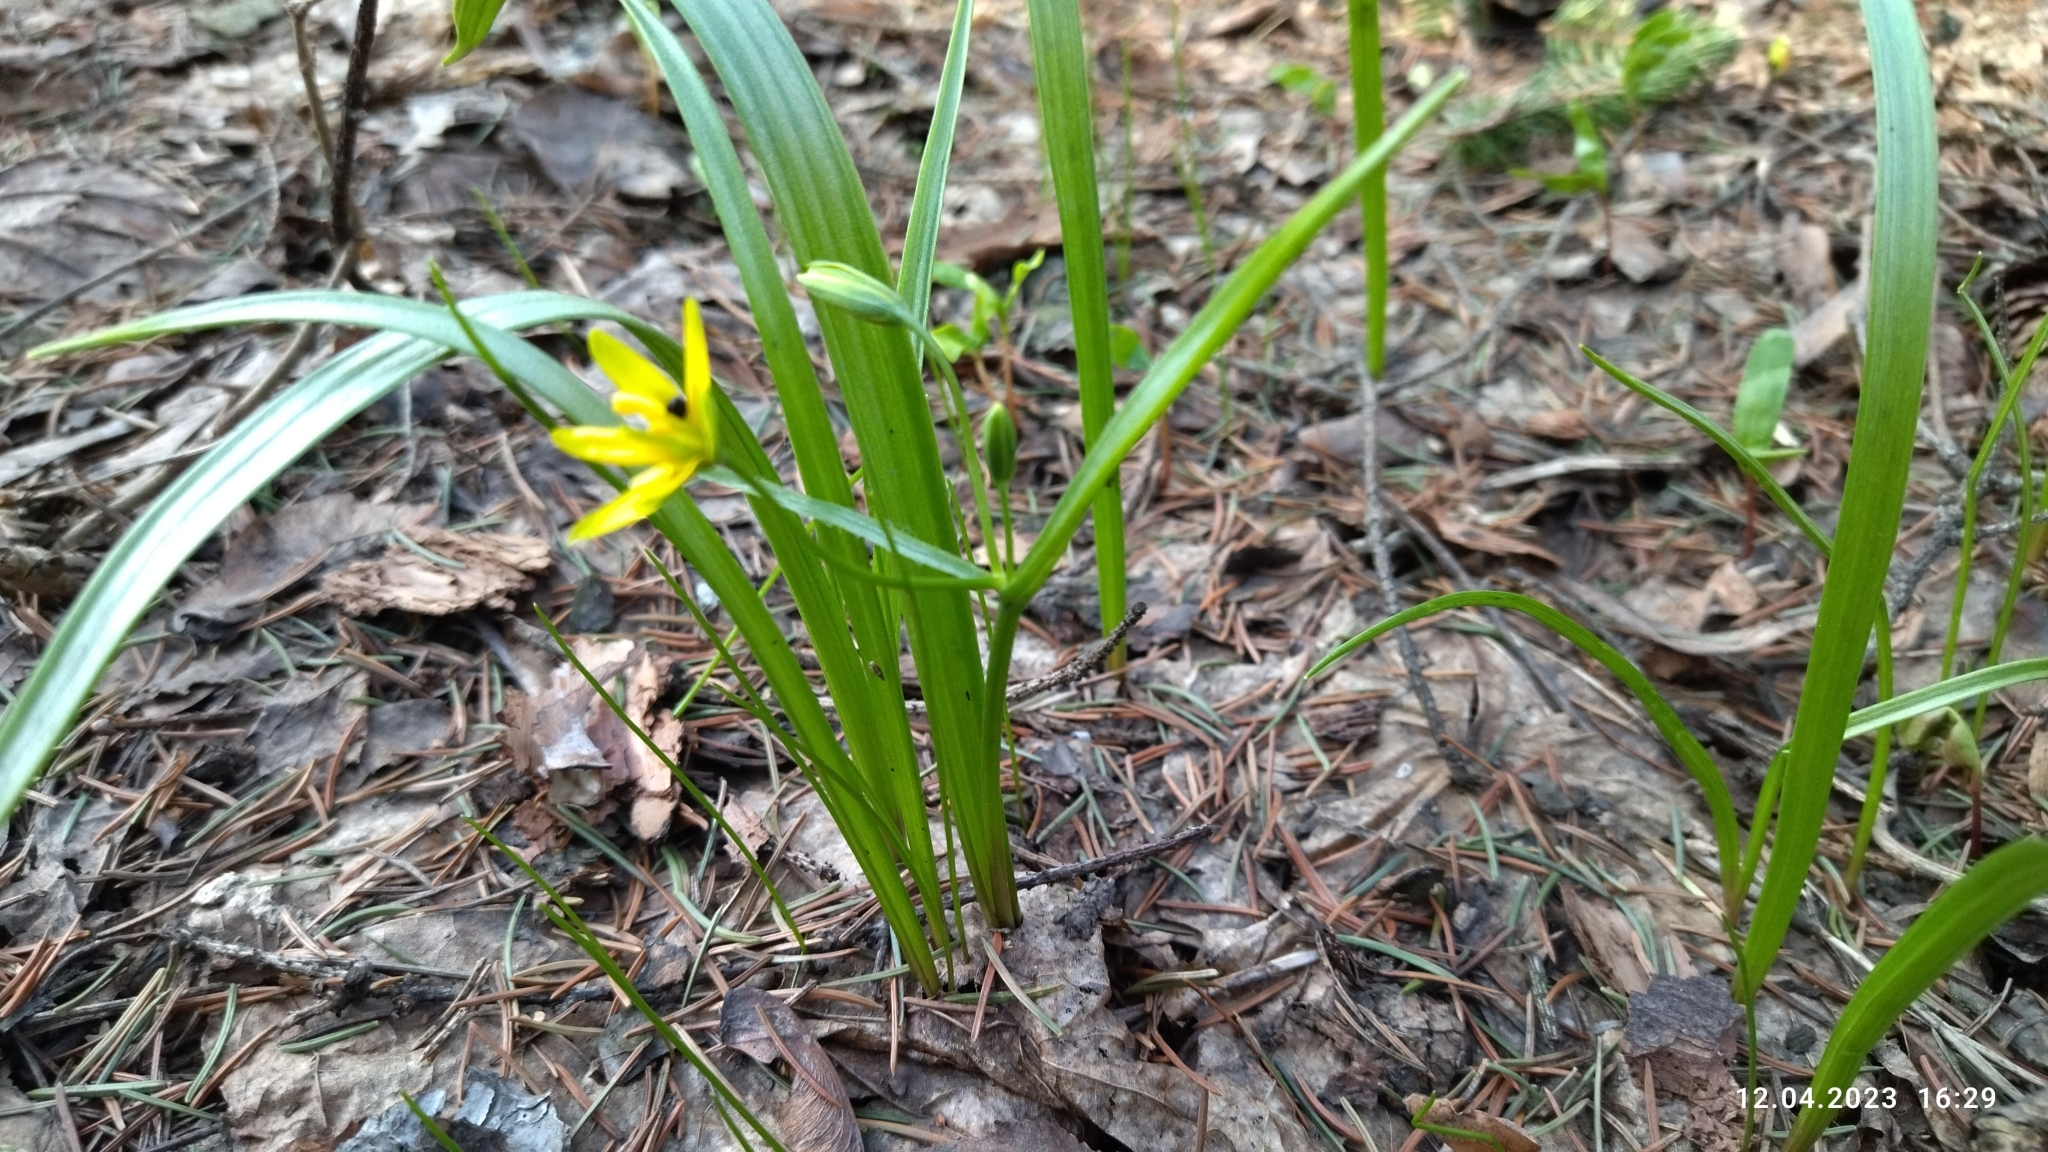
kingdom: Plantae
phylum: Tracheophyta
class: Liliopsida
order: Liliales
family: Liliaceae
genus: Gagea
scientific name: Gagea lutea
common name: Yellow star-of-bethlehem
